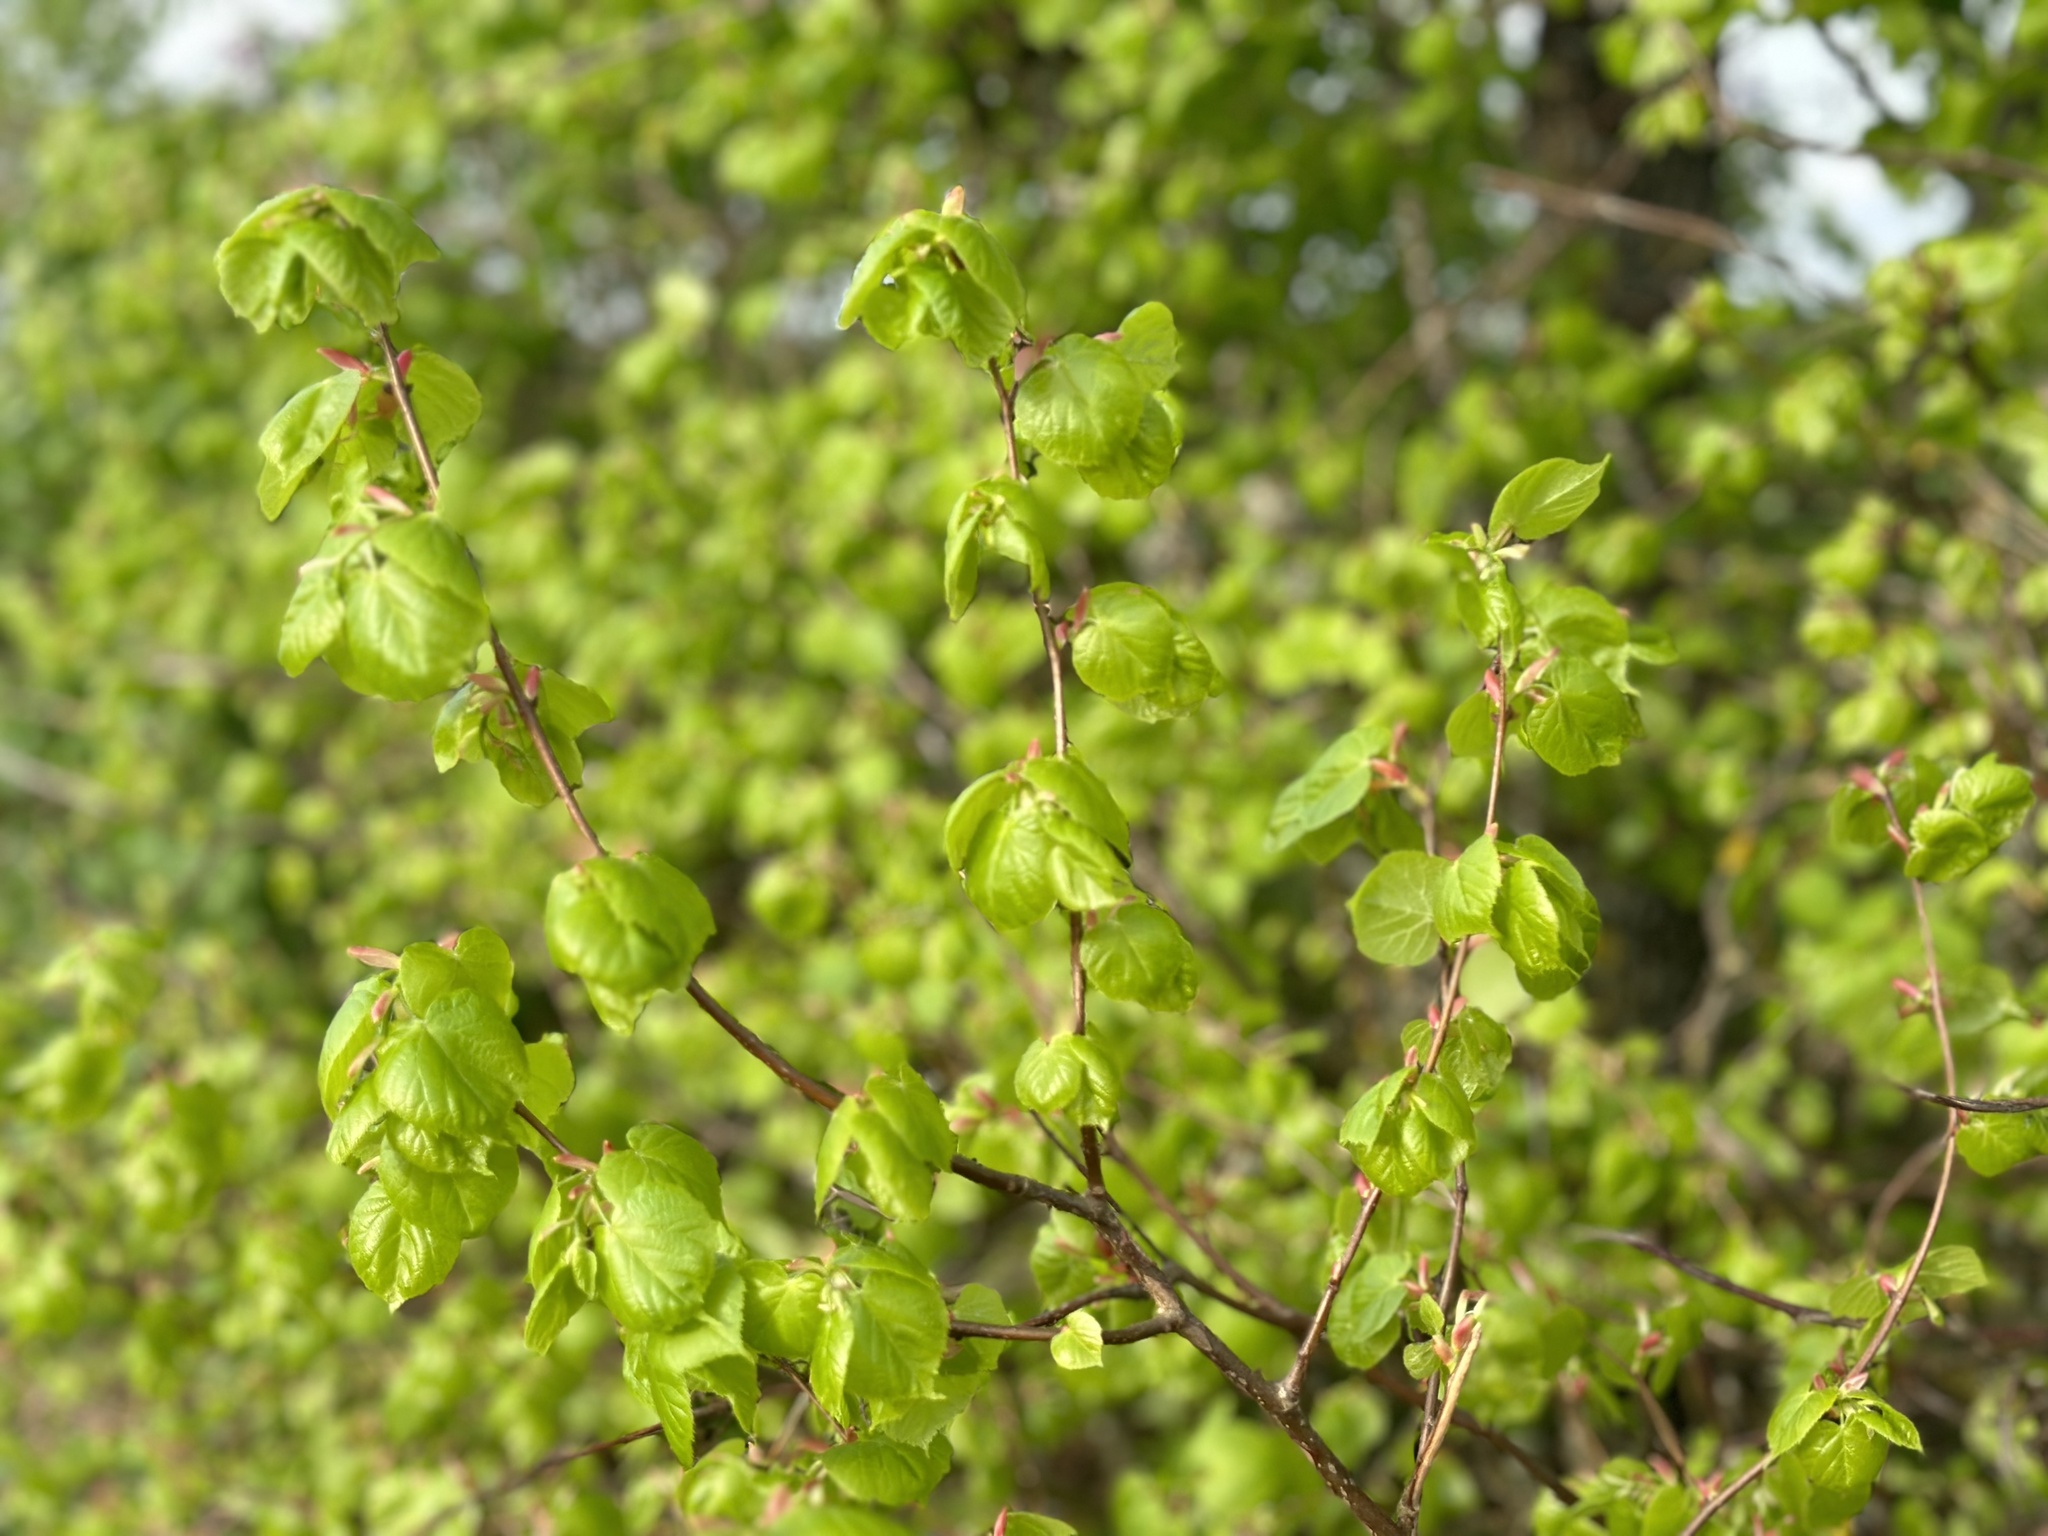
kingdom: Plantae
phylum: Tracheophyta
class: Magnoliopsida
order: Malvales
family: Malvaceae
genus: Tilia
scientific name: Tilia cordata
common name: Small-leaved lime
